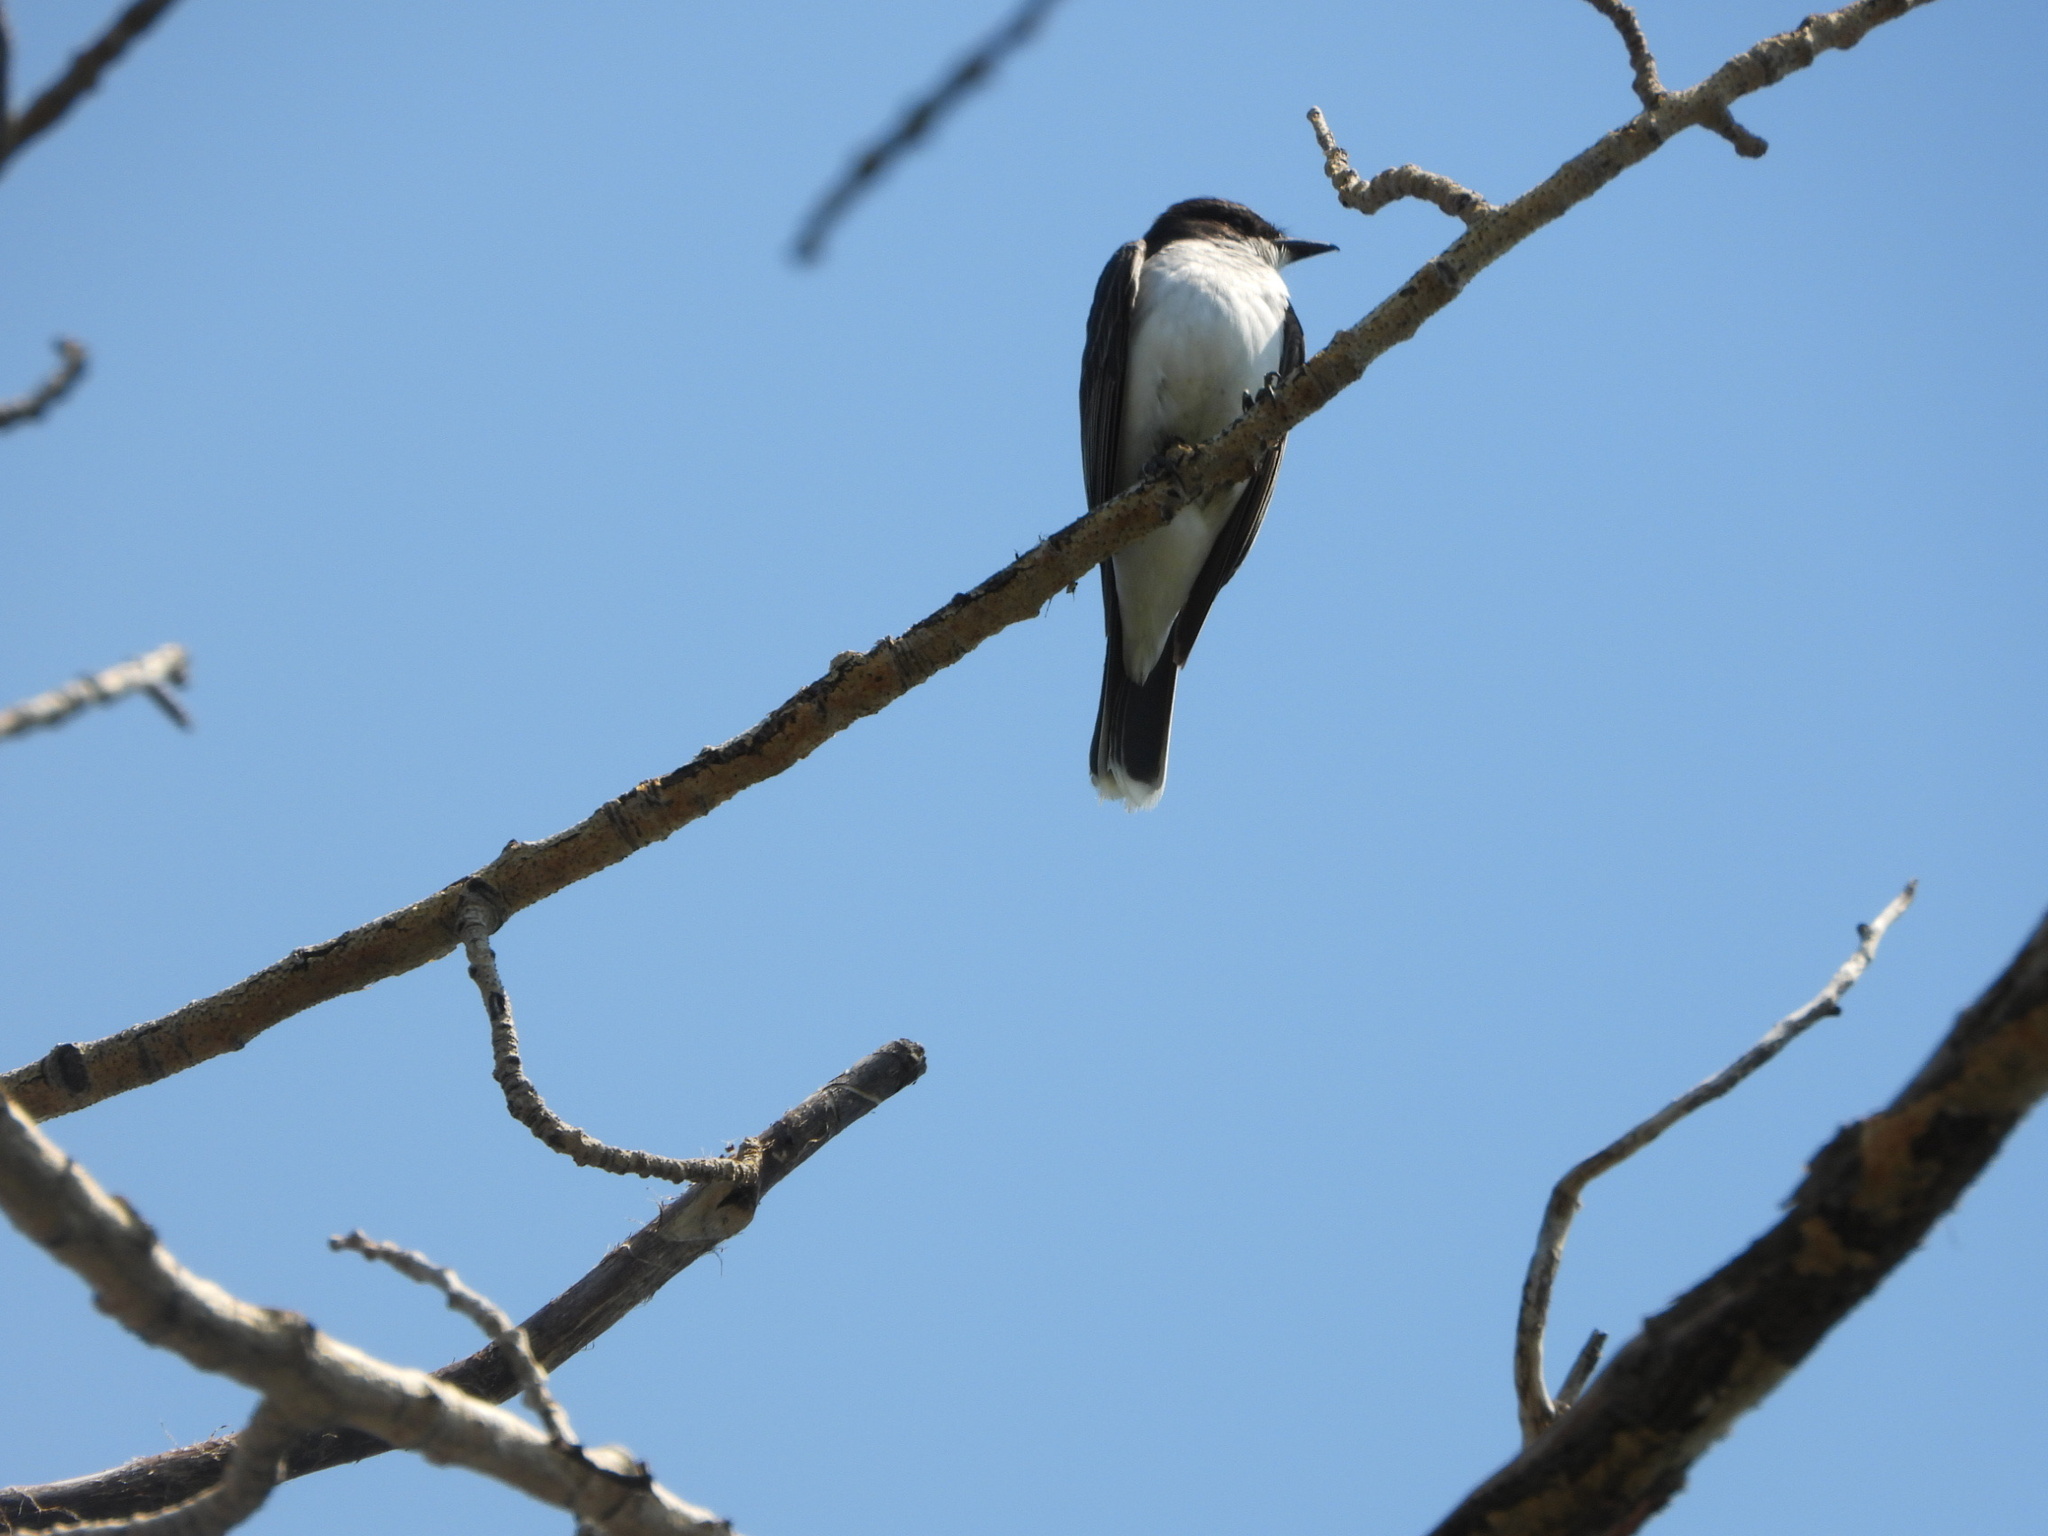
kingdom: Animalia
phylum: Chordata
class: Aves
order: Passeriformes
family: Tyrannidae
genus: Tyrannus
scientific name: Tyrannus tyrannus
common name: Eastern kingbird
